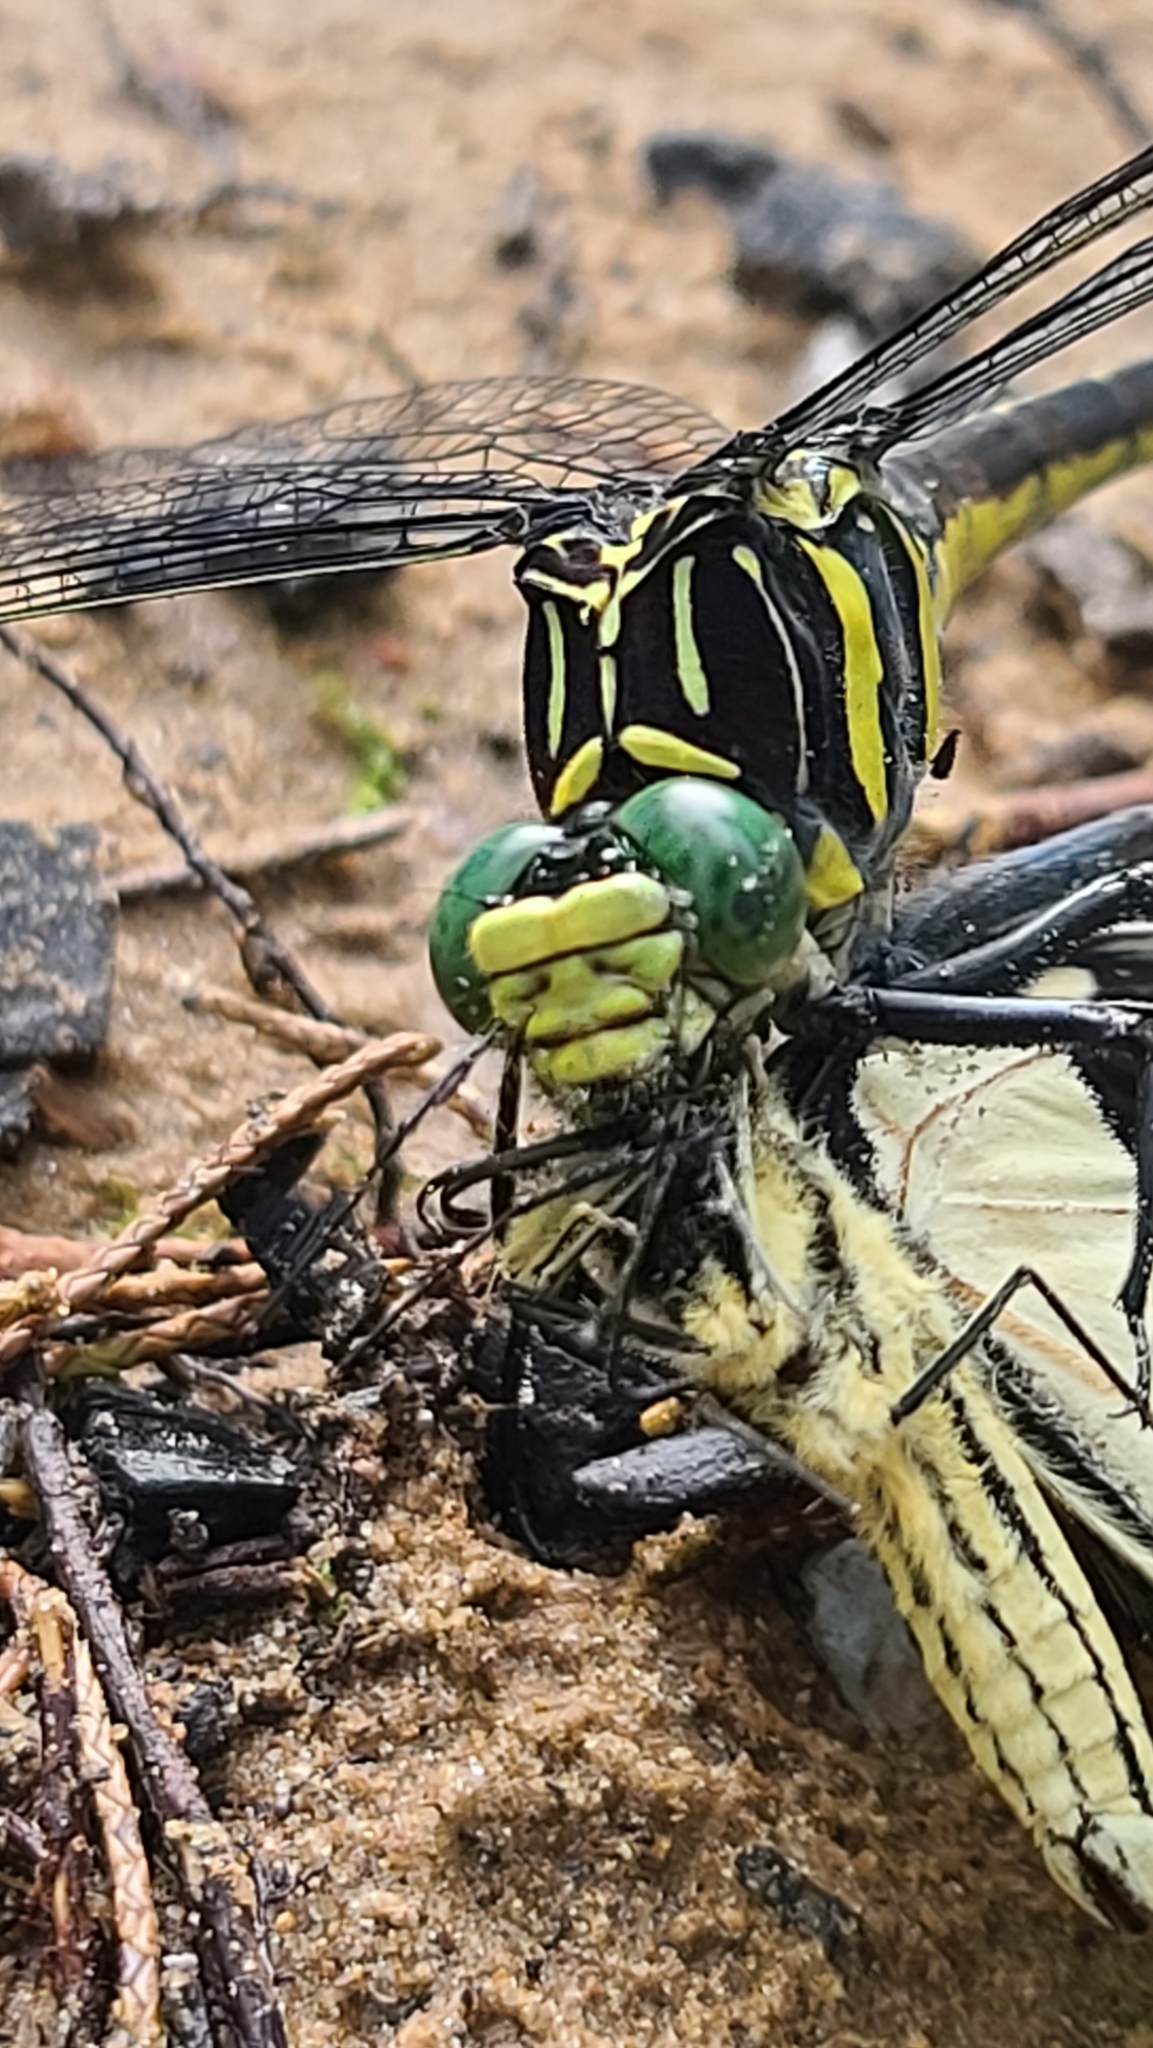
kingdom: Animalia
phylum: Arthropoda
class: Insecta
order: Odonata
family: Gomphidae
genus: Hagenius
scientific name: Hagenius brevistylus
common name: Dragonhunter
